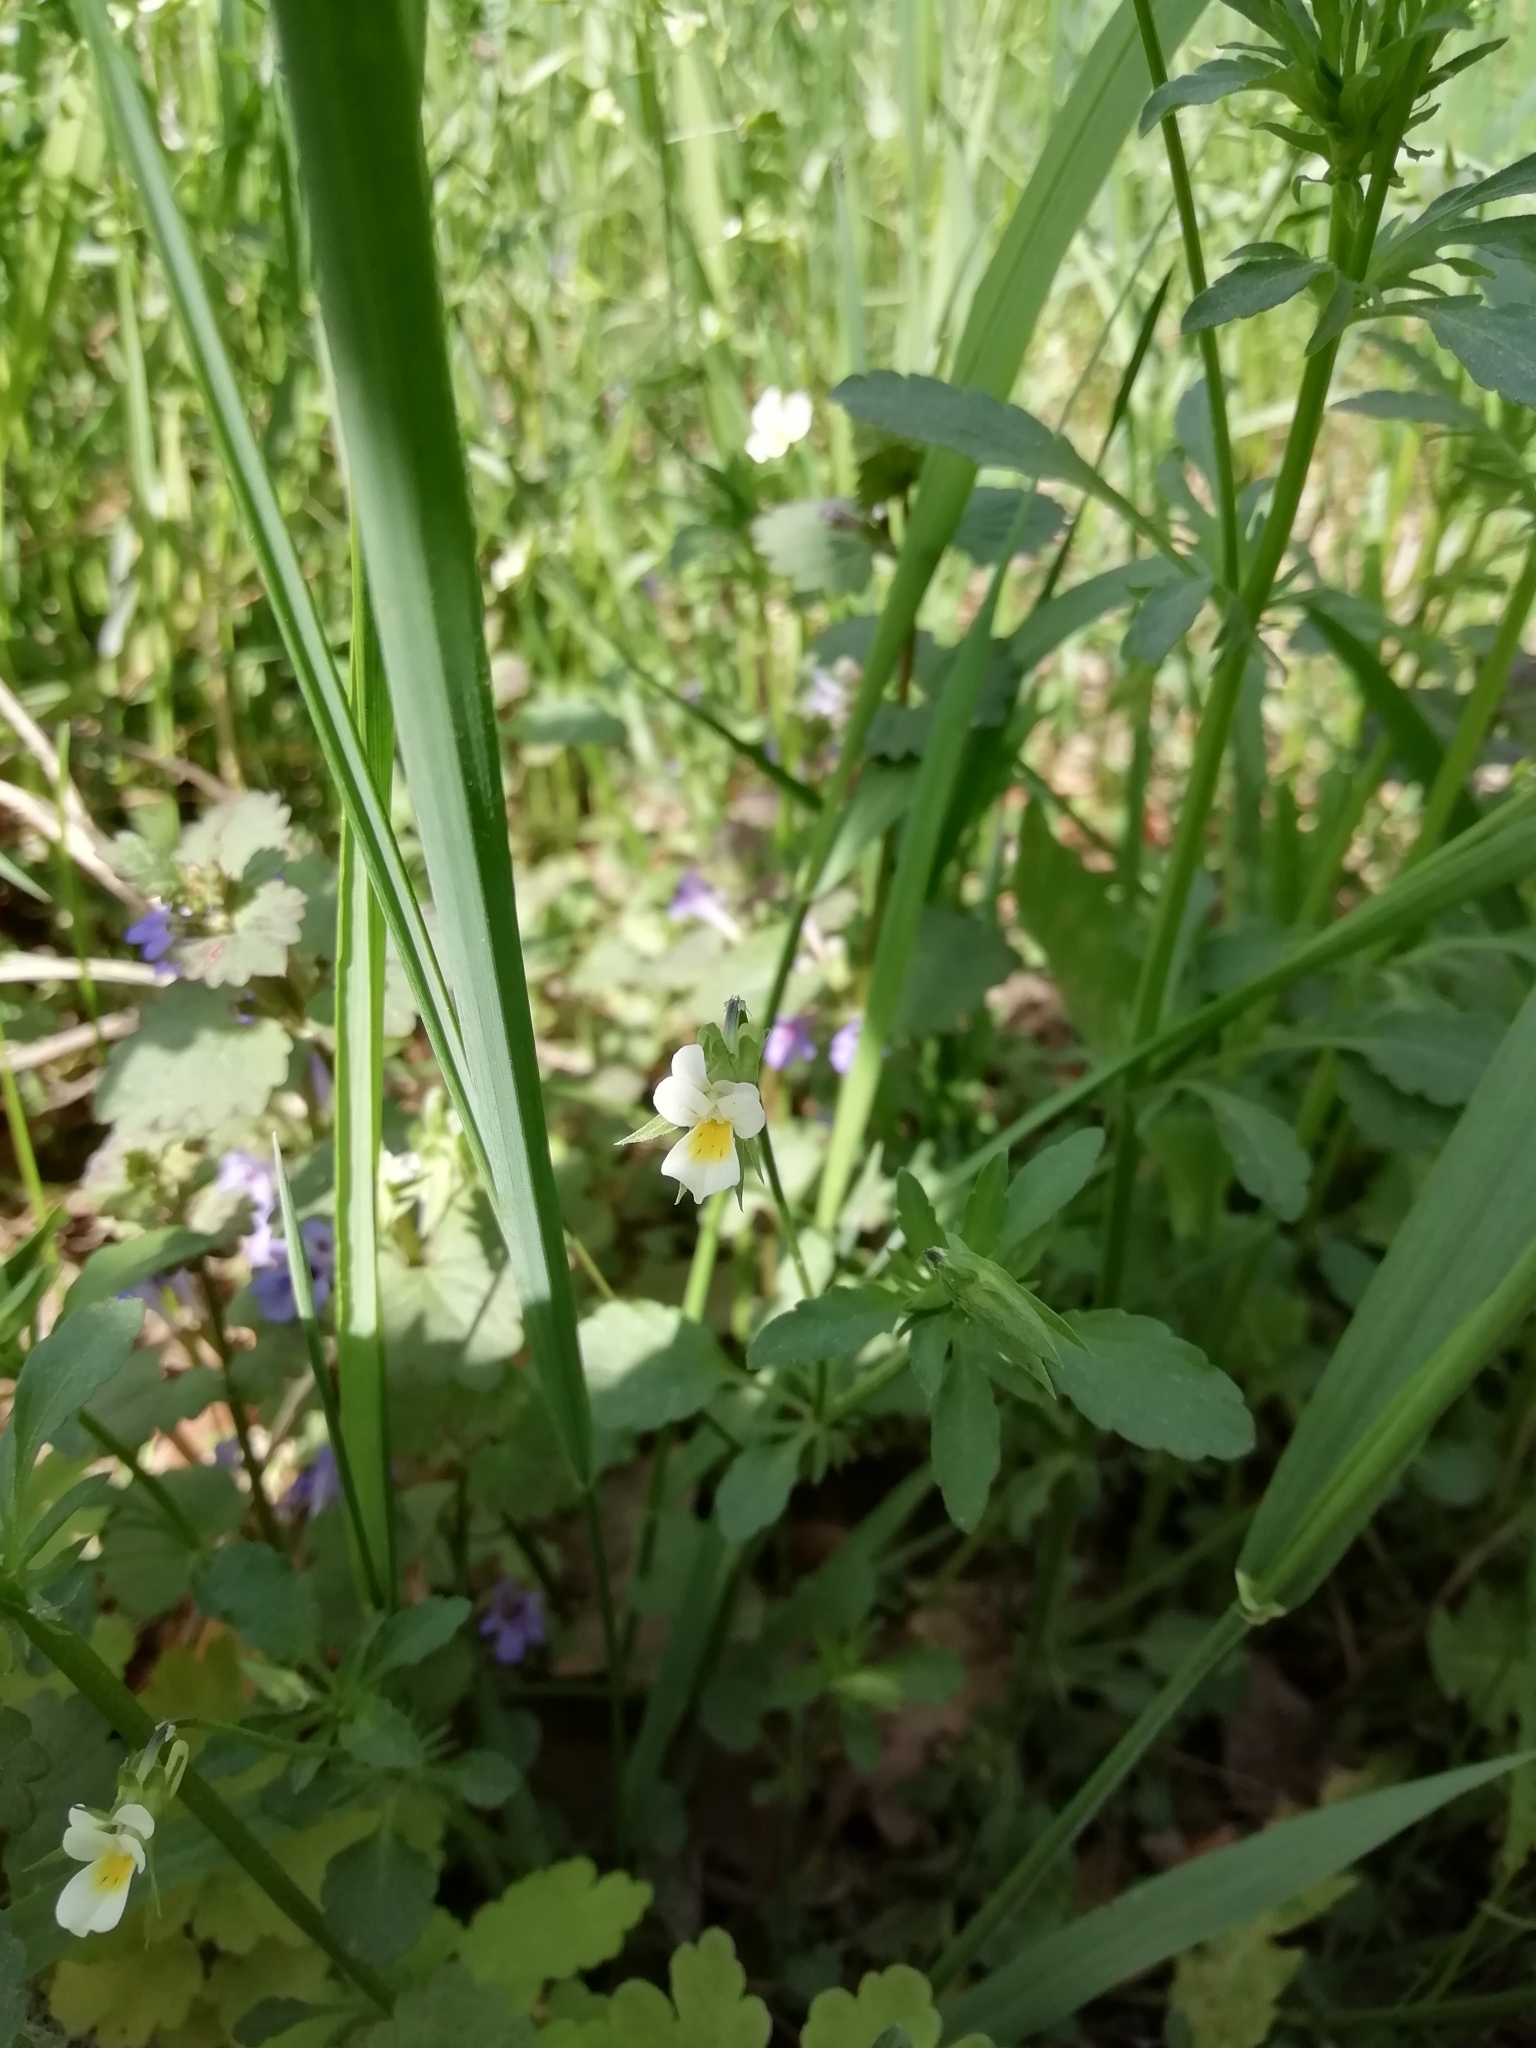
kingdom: Plantae
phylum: Tracheophyta
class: Magnoliopsida
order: Malpighiales
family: Violaceae
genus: Viola
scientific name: Viola contempta
